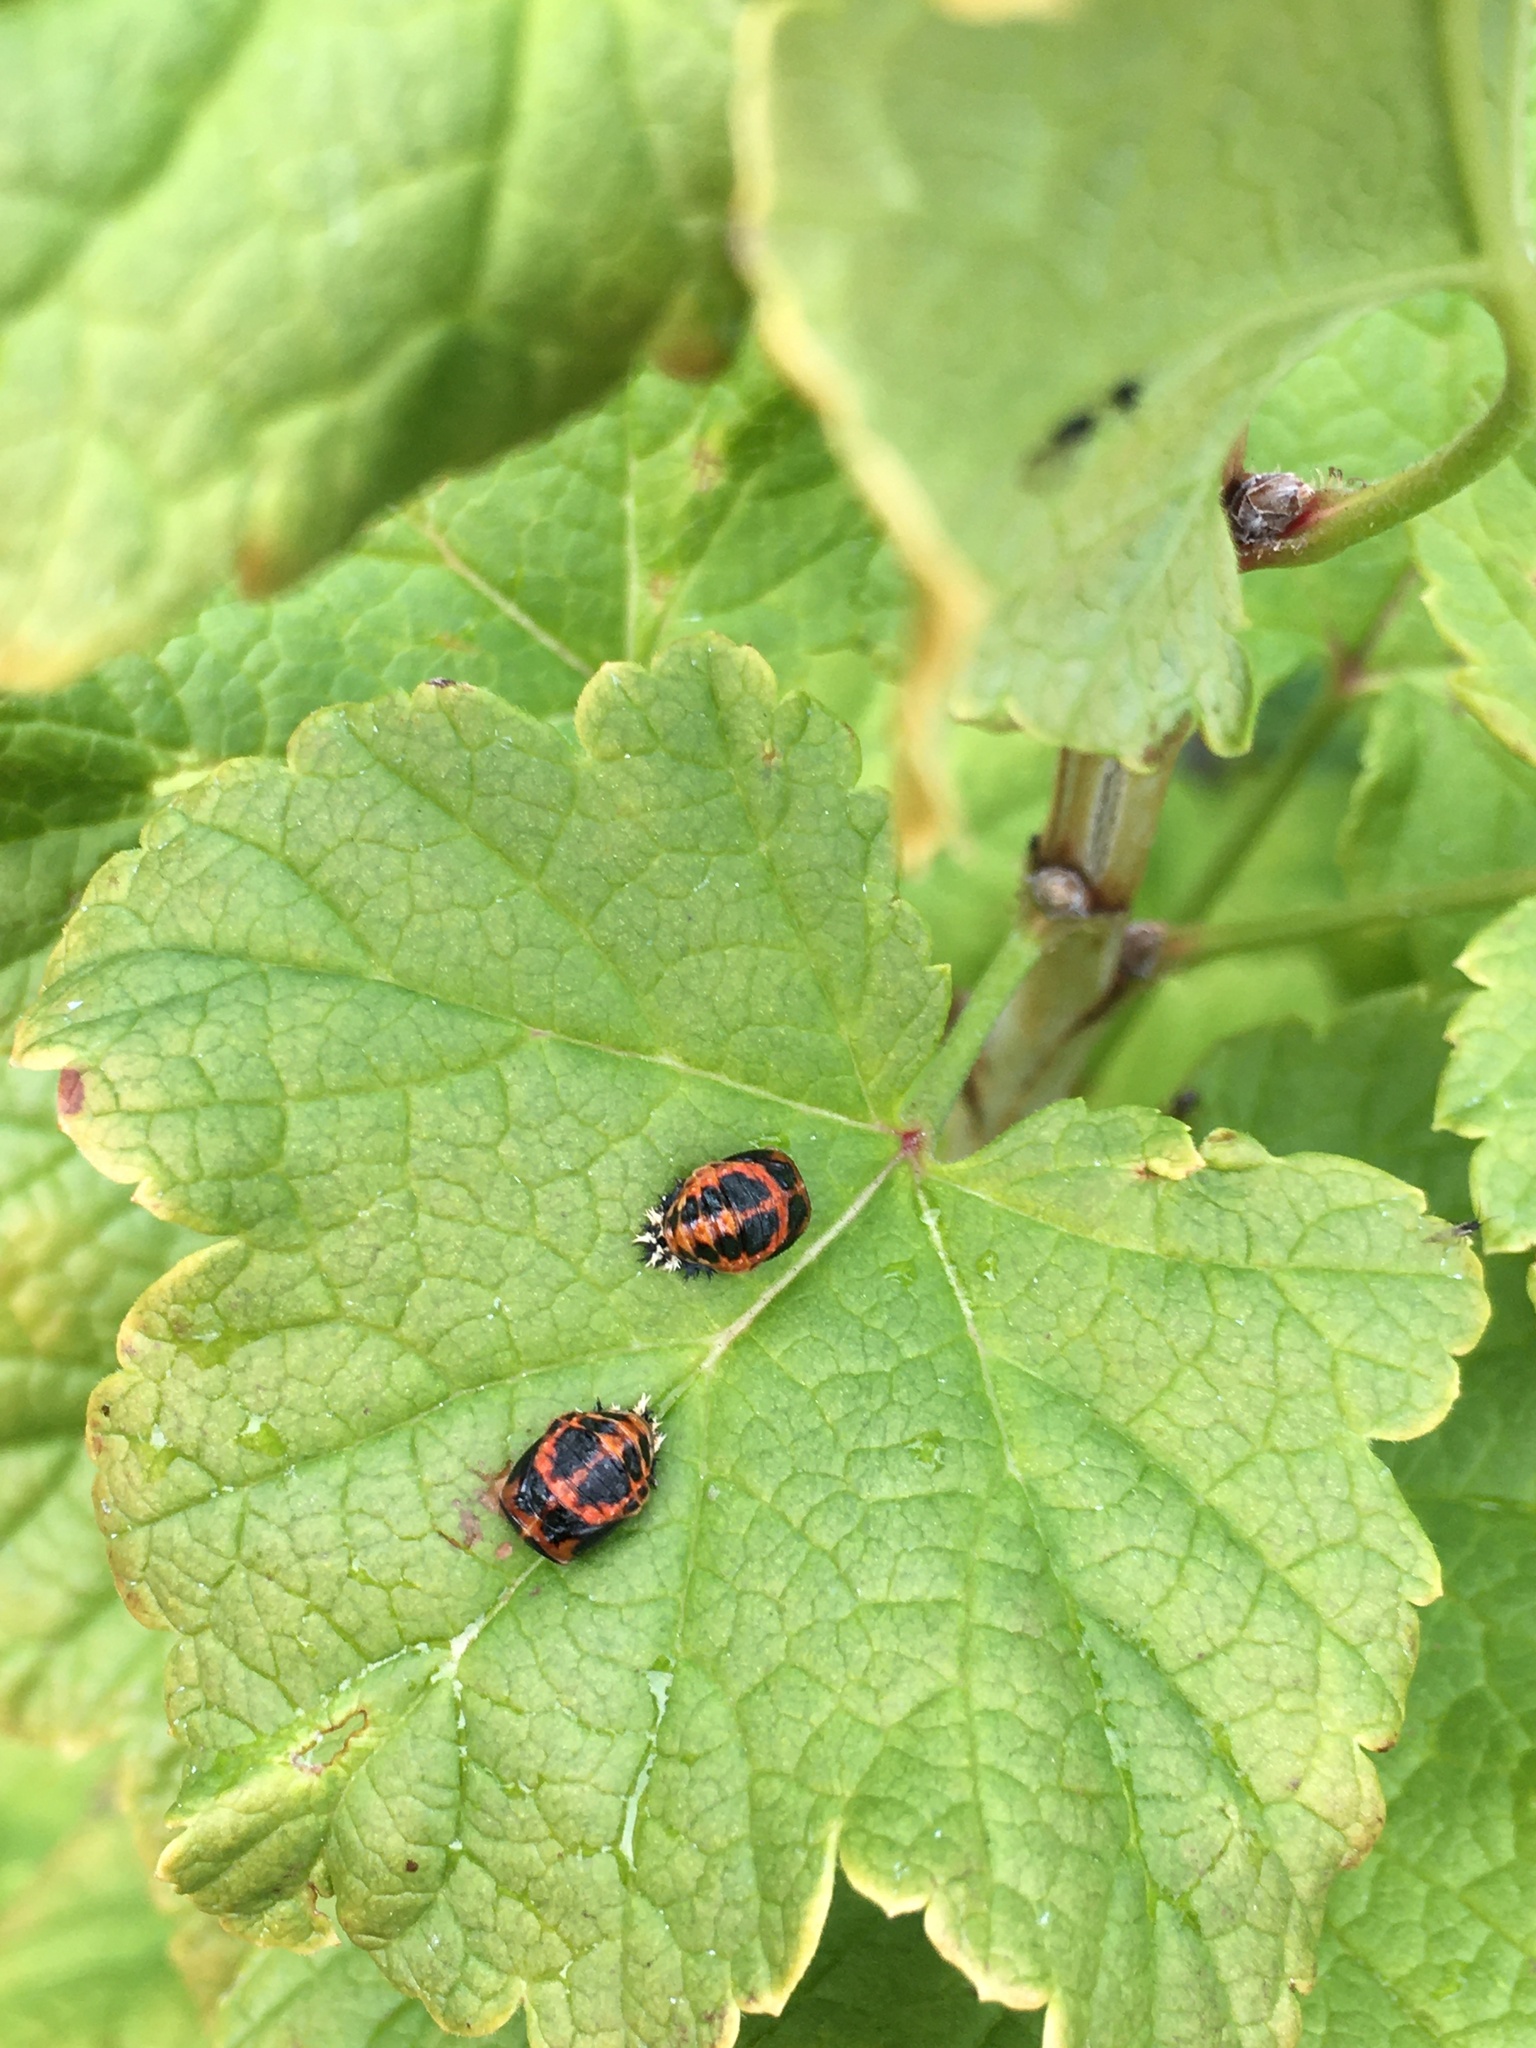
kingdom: Animalia
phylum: Arthropoda
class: Insecta
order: Coleoptera
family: Coccinellidae
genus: Harmonia
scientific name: Harmonia axyridis
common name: Harlequin ladybird
